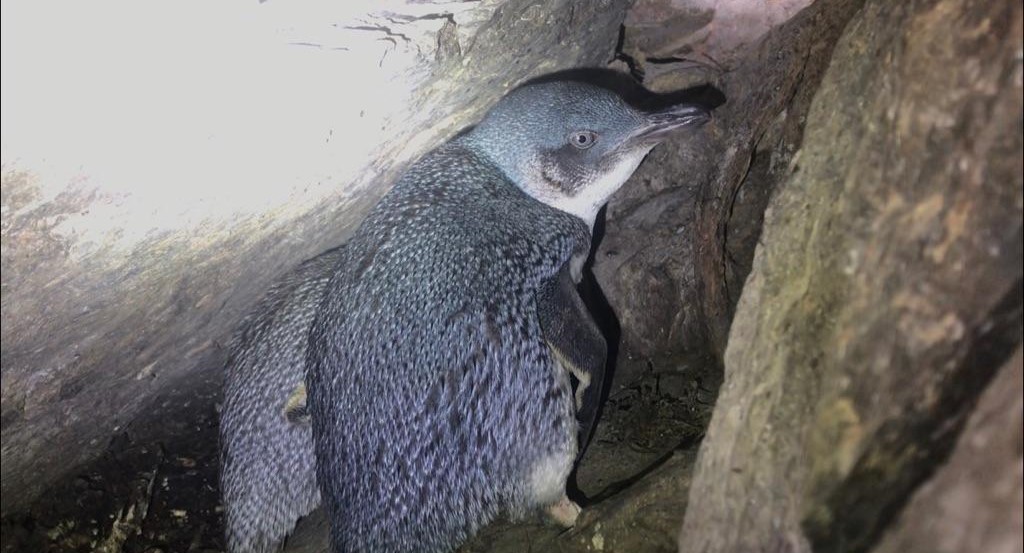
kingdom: Animalia
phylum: Chordata
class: Aves
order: Sphenisciformes
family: Spheniscidae
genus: Eudyptula
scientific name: Eudyptula minor
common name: Little penguin
